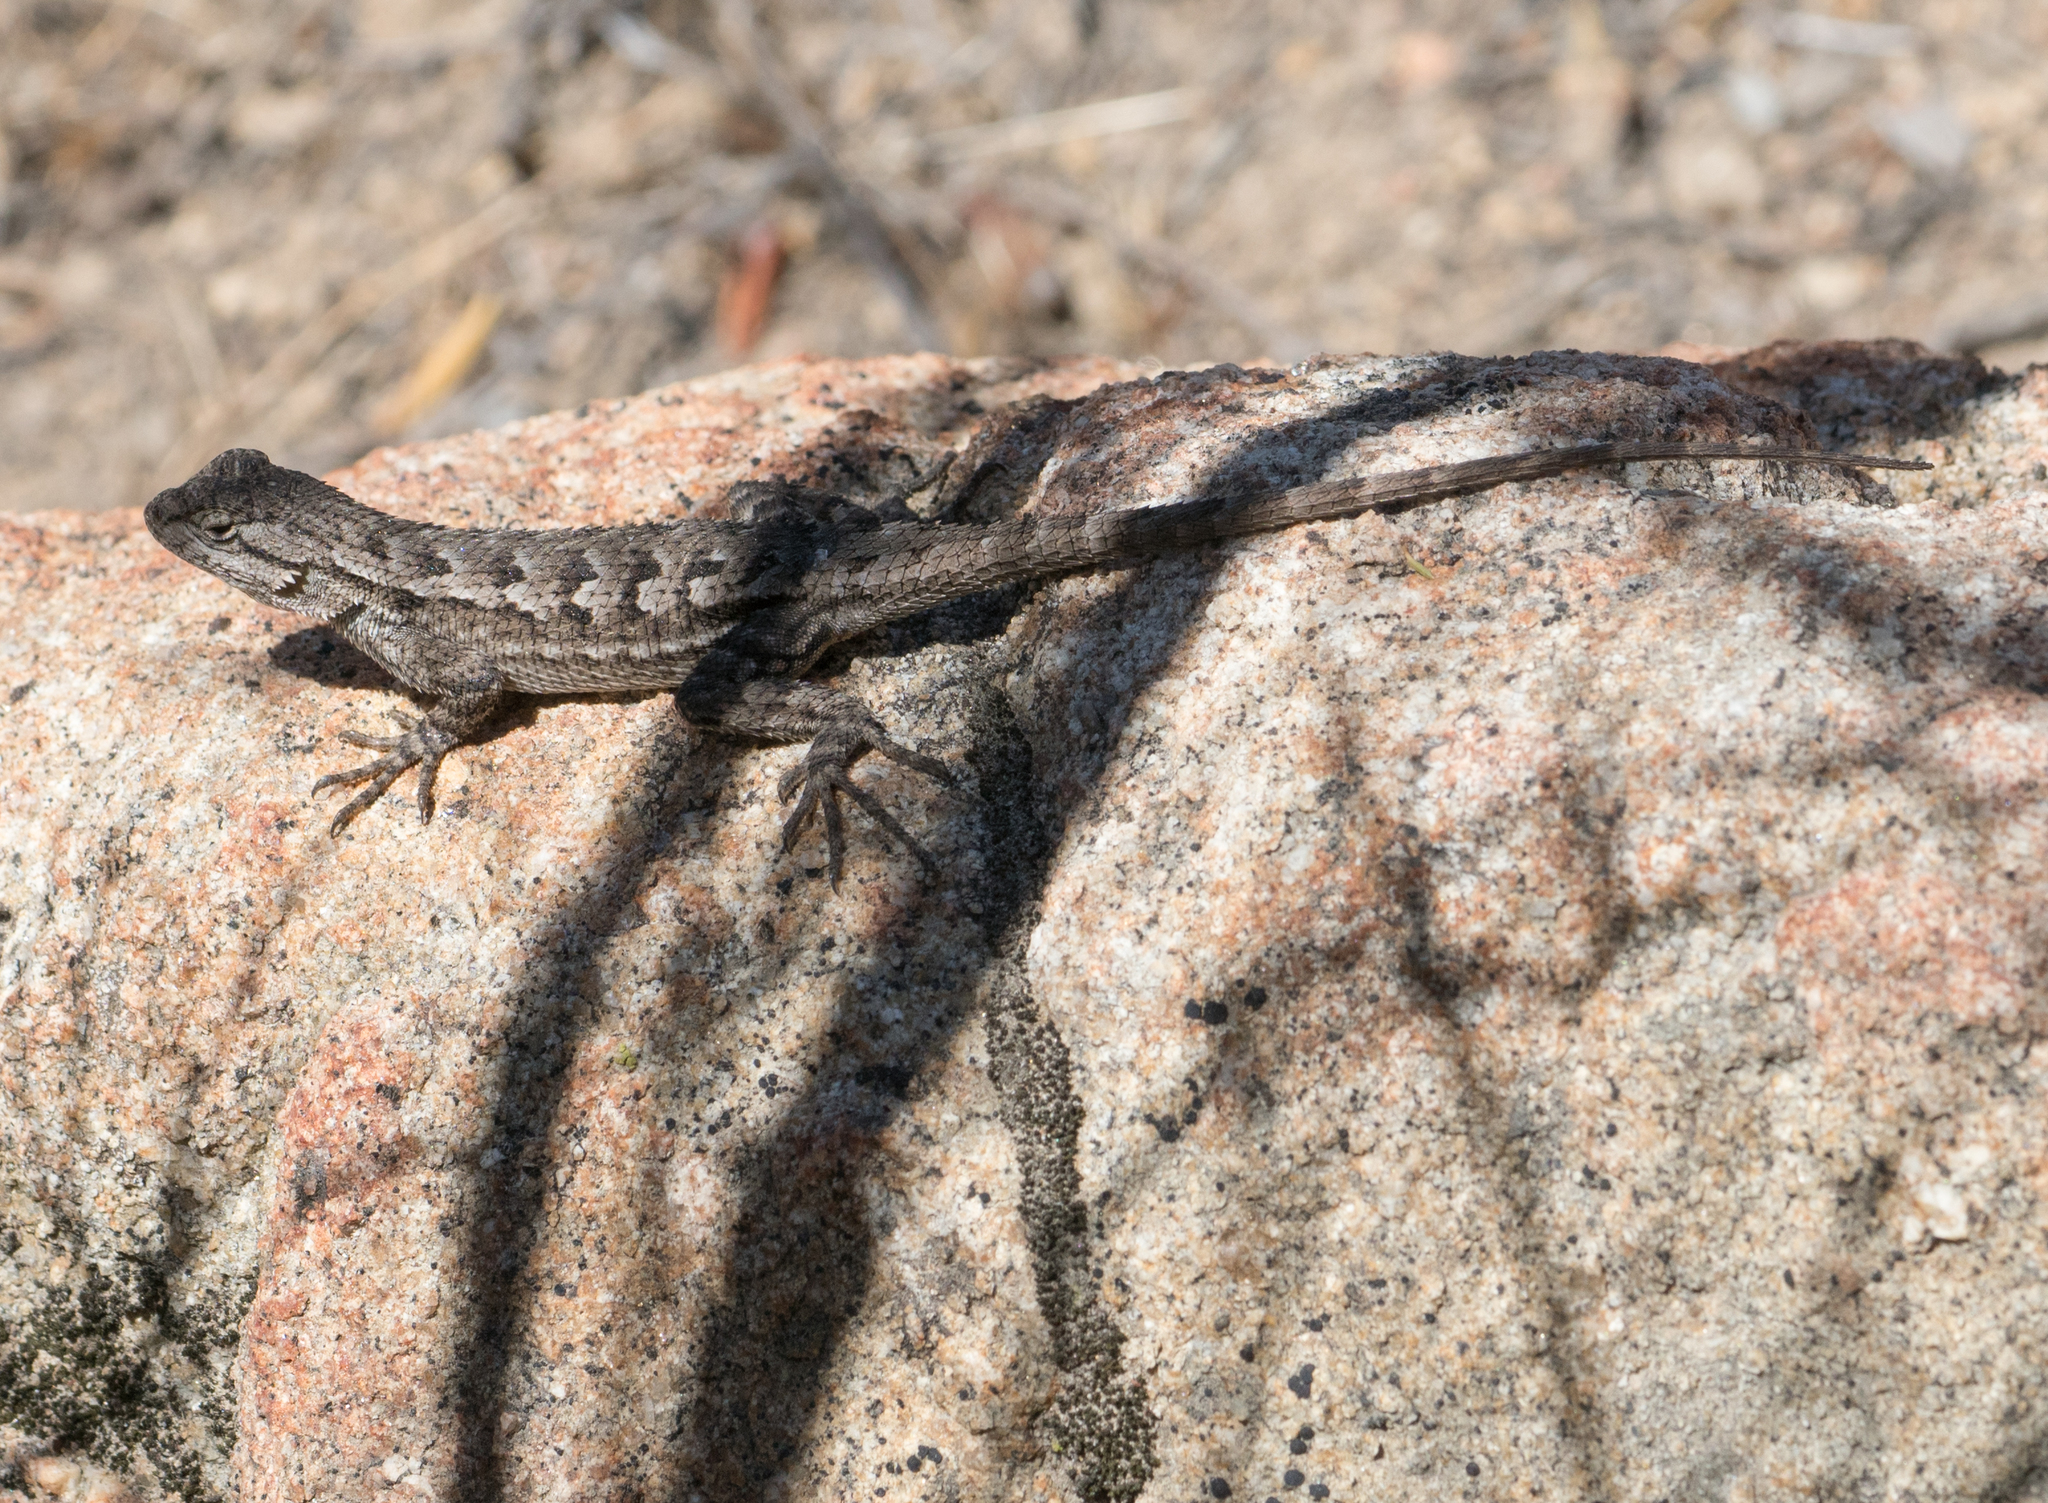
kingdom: Animalia
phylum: Chordata
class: Squamata
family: Phrynosomatidae
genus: Sceloporus
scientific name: Sceloporus occidentalis
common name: Western fence lizard
